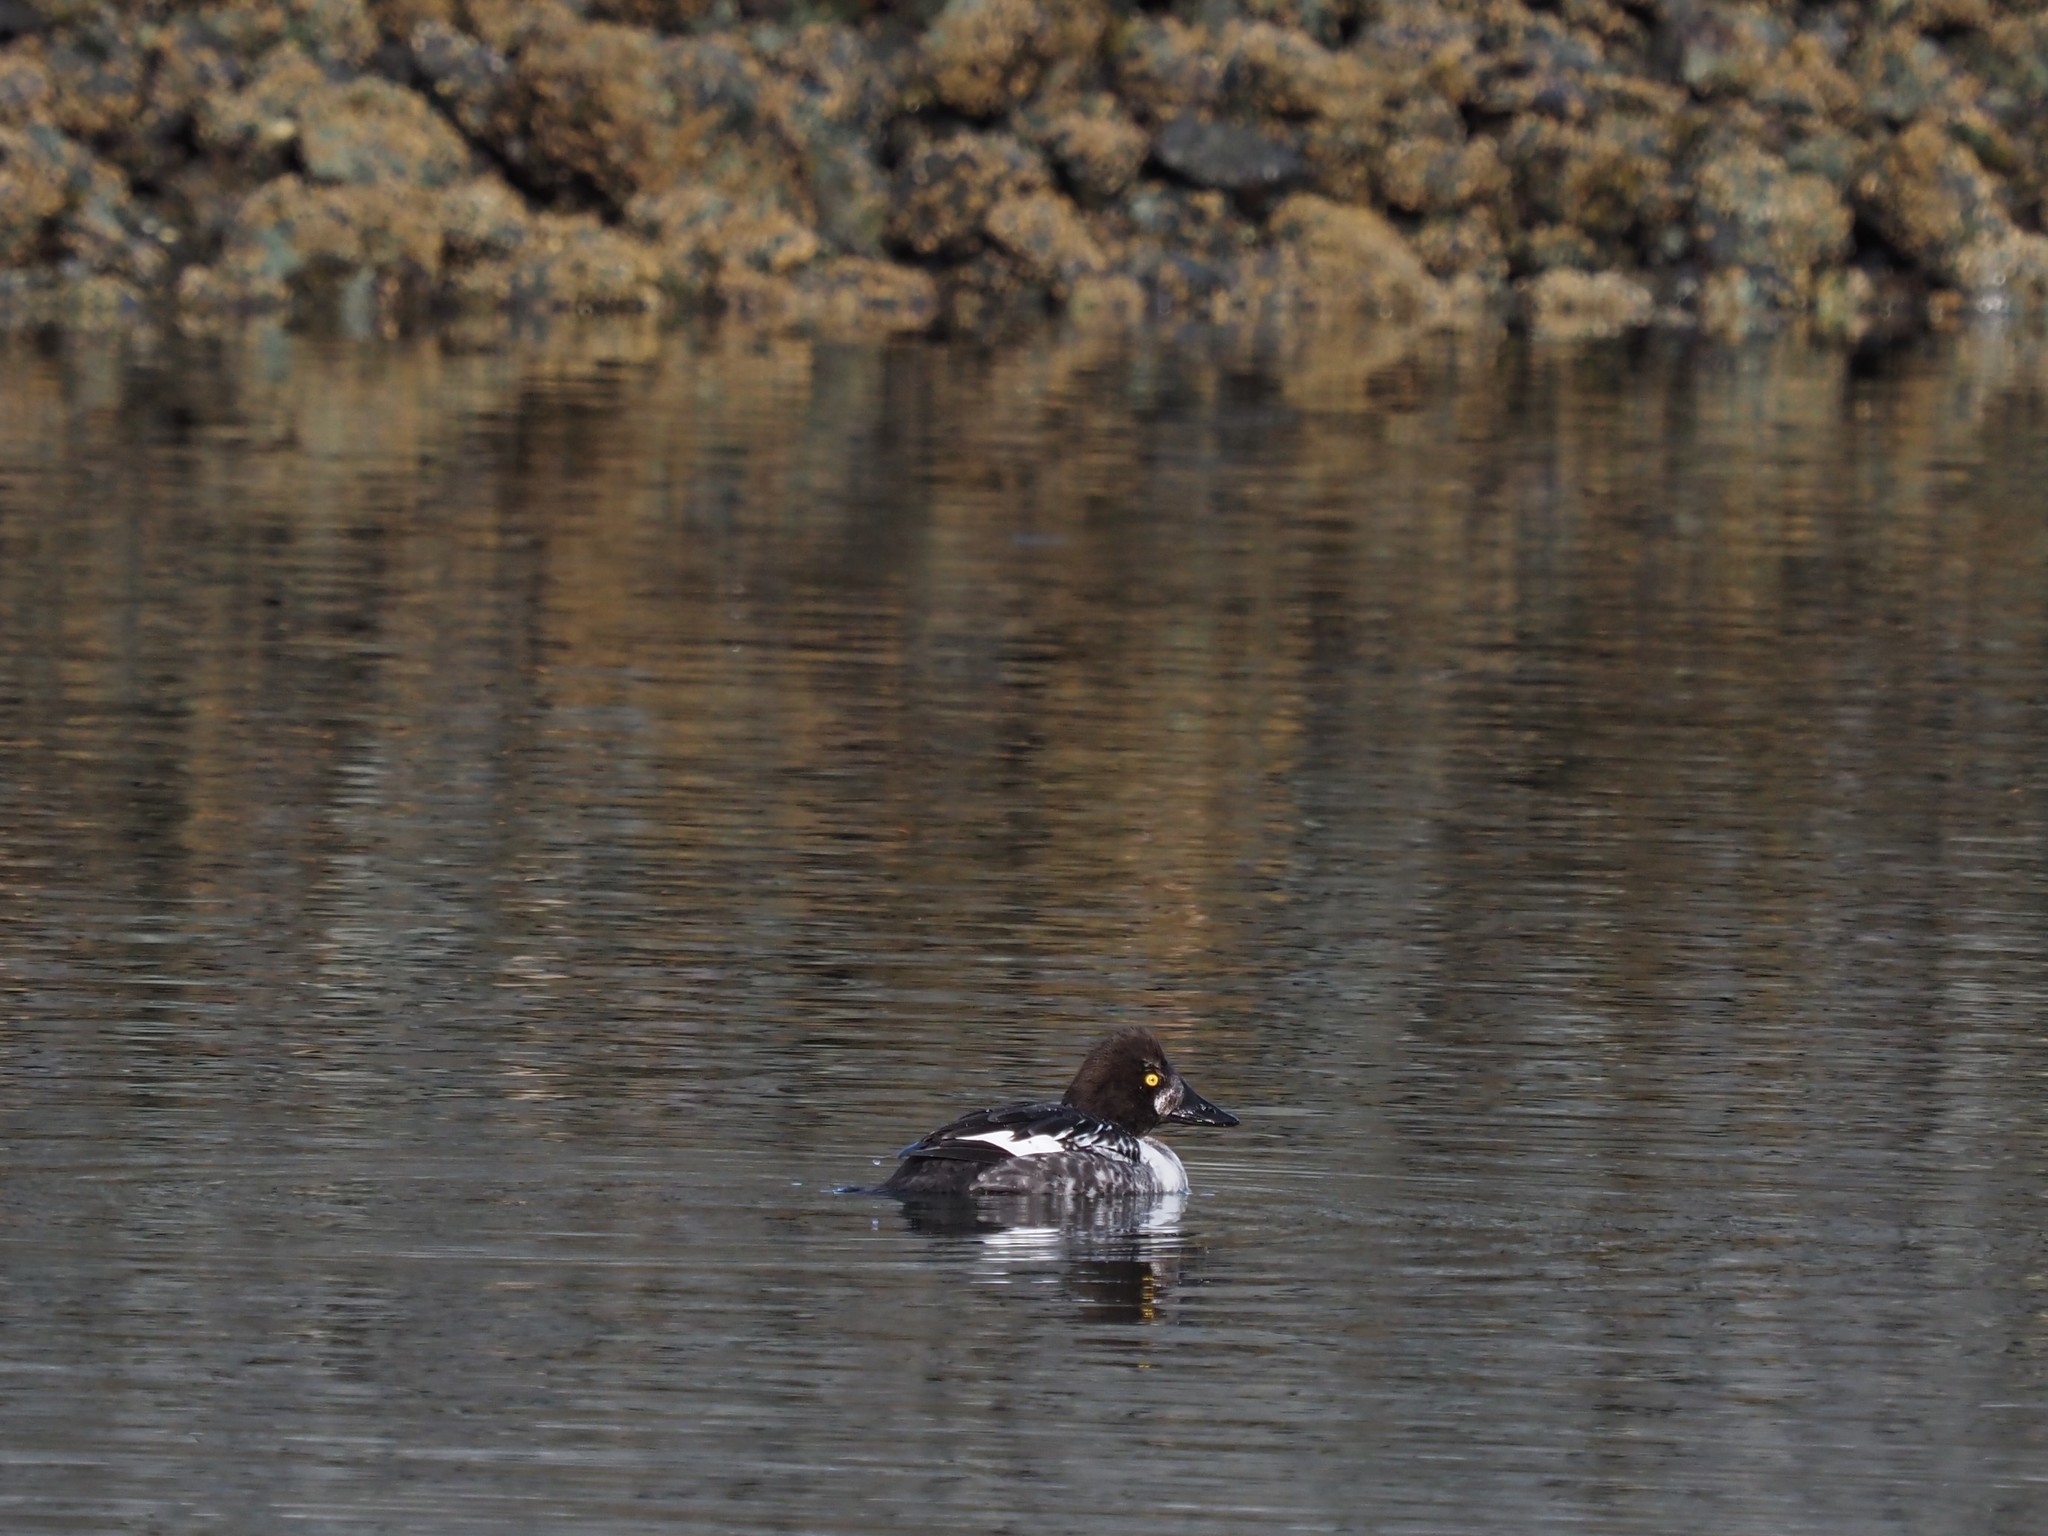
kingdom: Animalia
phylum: Chordata
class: Aves
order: Anseriformes
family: Anatidae
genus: Bucephala
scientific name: Bucephala clangula
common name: Common goldeneye
